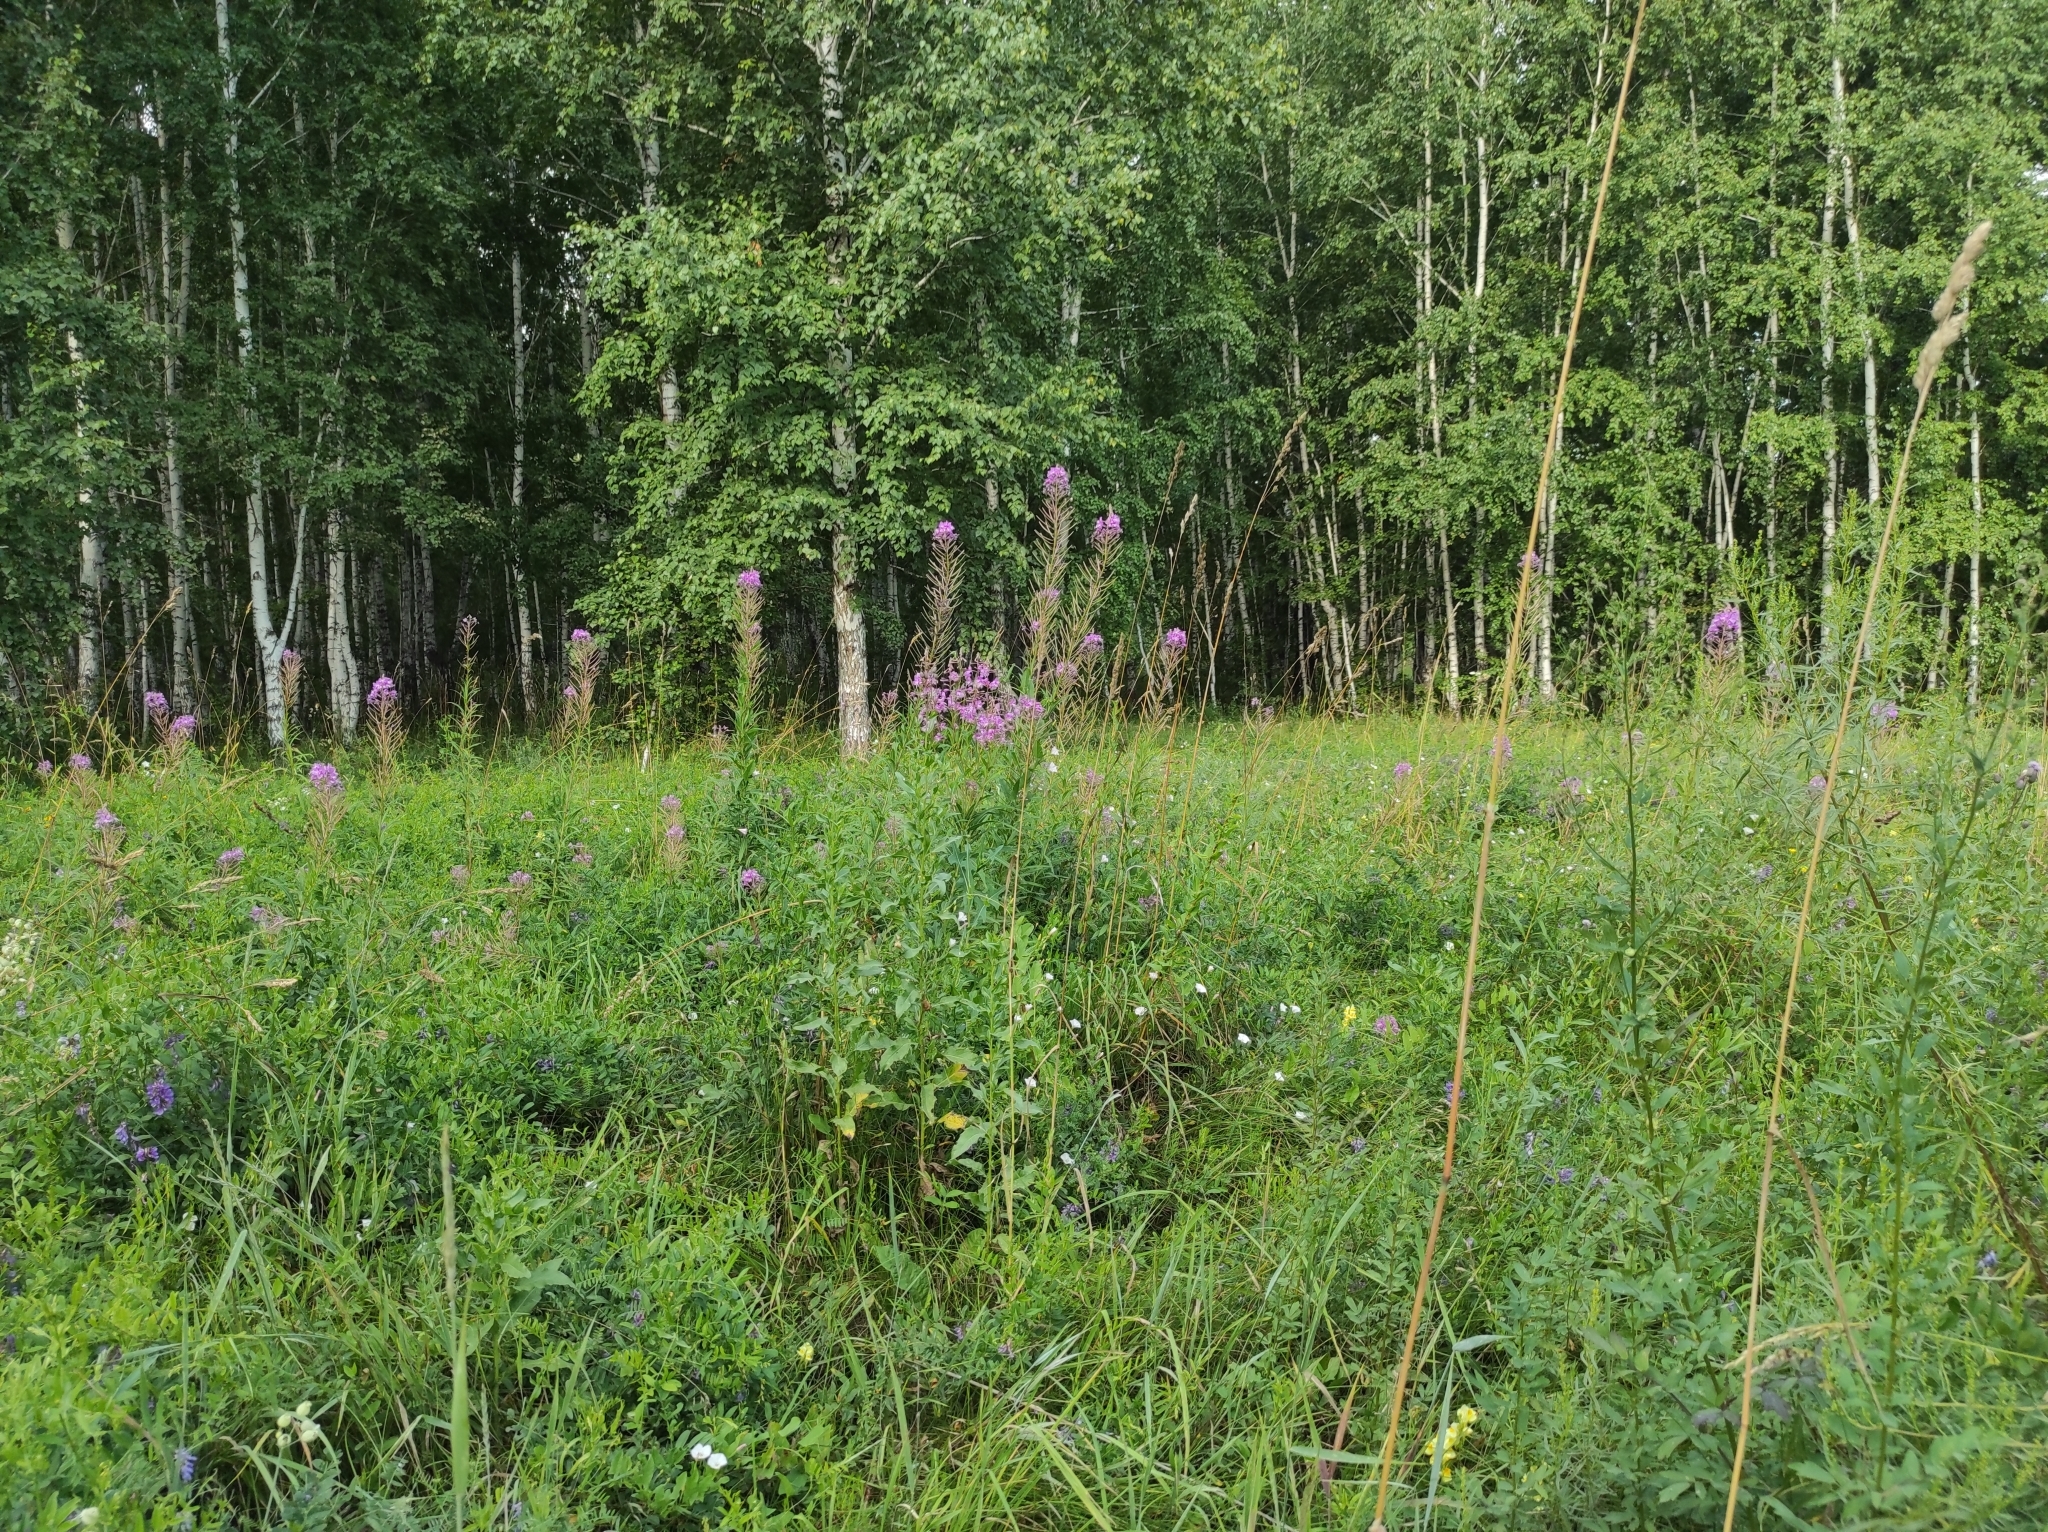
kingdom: Plantae
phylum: Tracheophyta
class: Magnoliopsida
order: Fagales
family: Betulaceae
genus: Betula
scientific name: Betula pendula
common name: Silver birch
